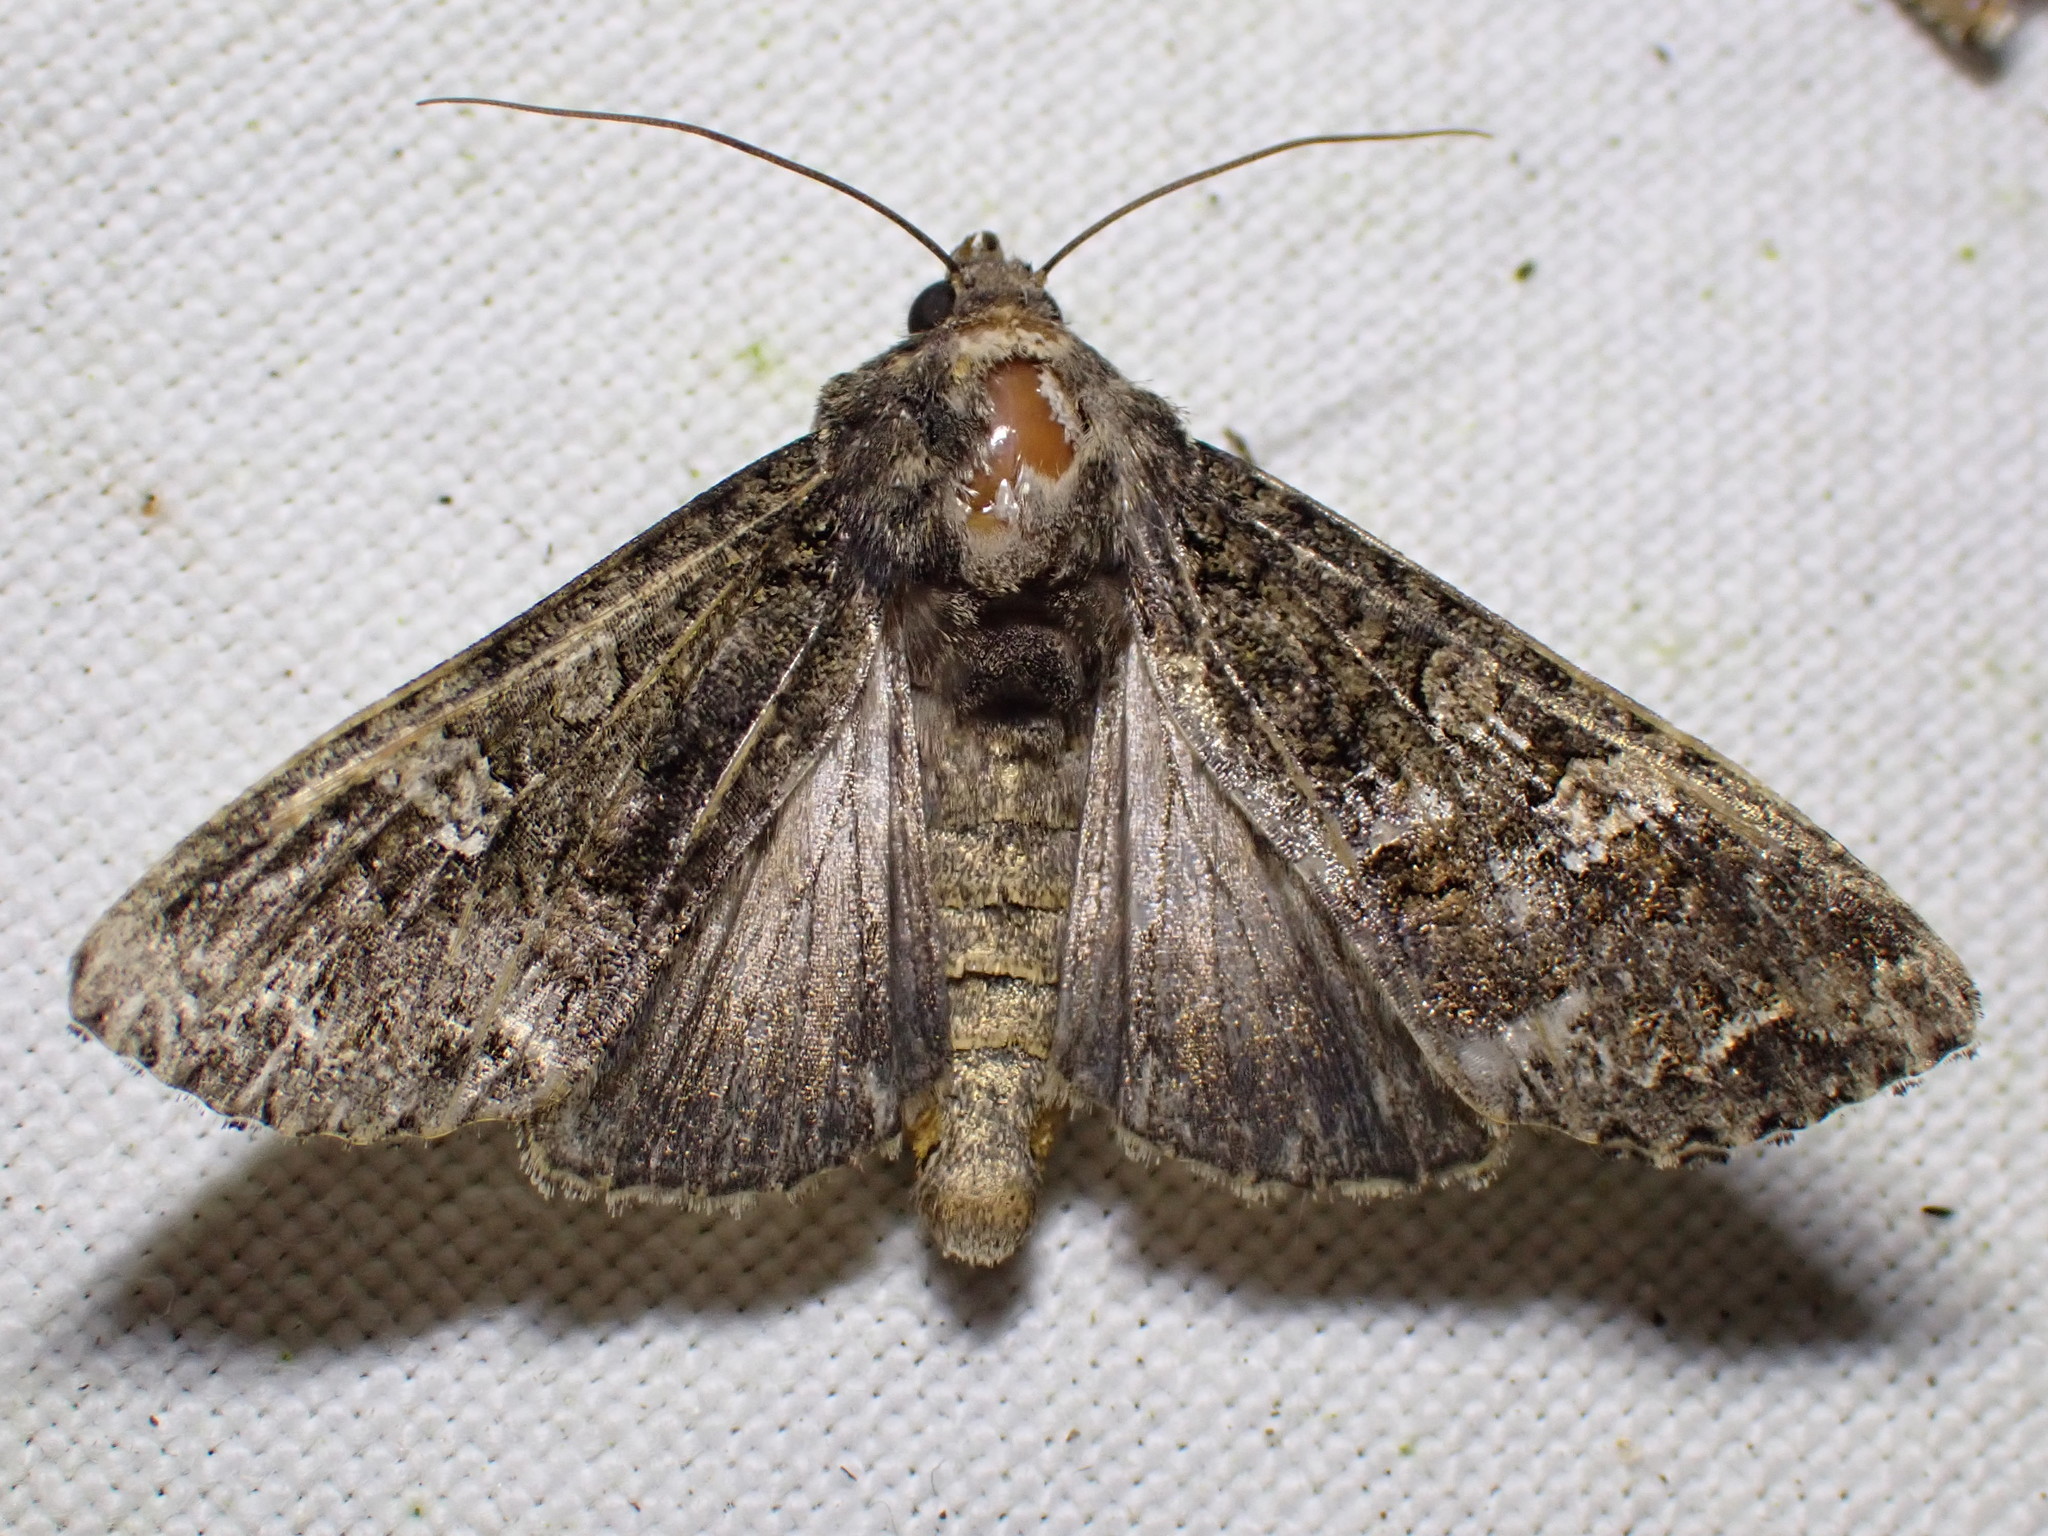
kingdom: Animalia
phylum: Arthropoda
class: Insecta
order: Lepidoptera
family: Noctuidae
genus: Mamestra
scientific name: Mamestra brassicae
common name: Cabbage moth
